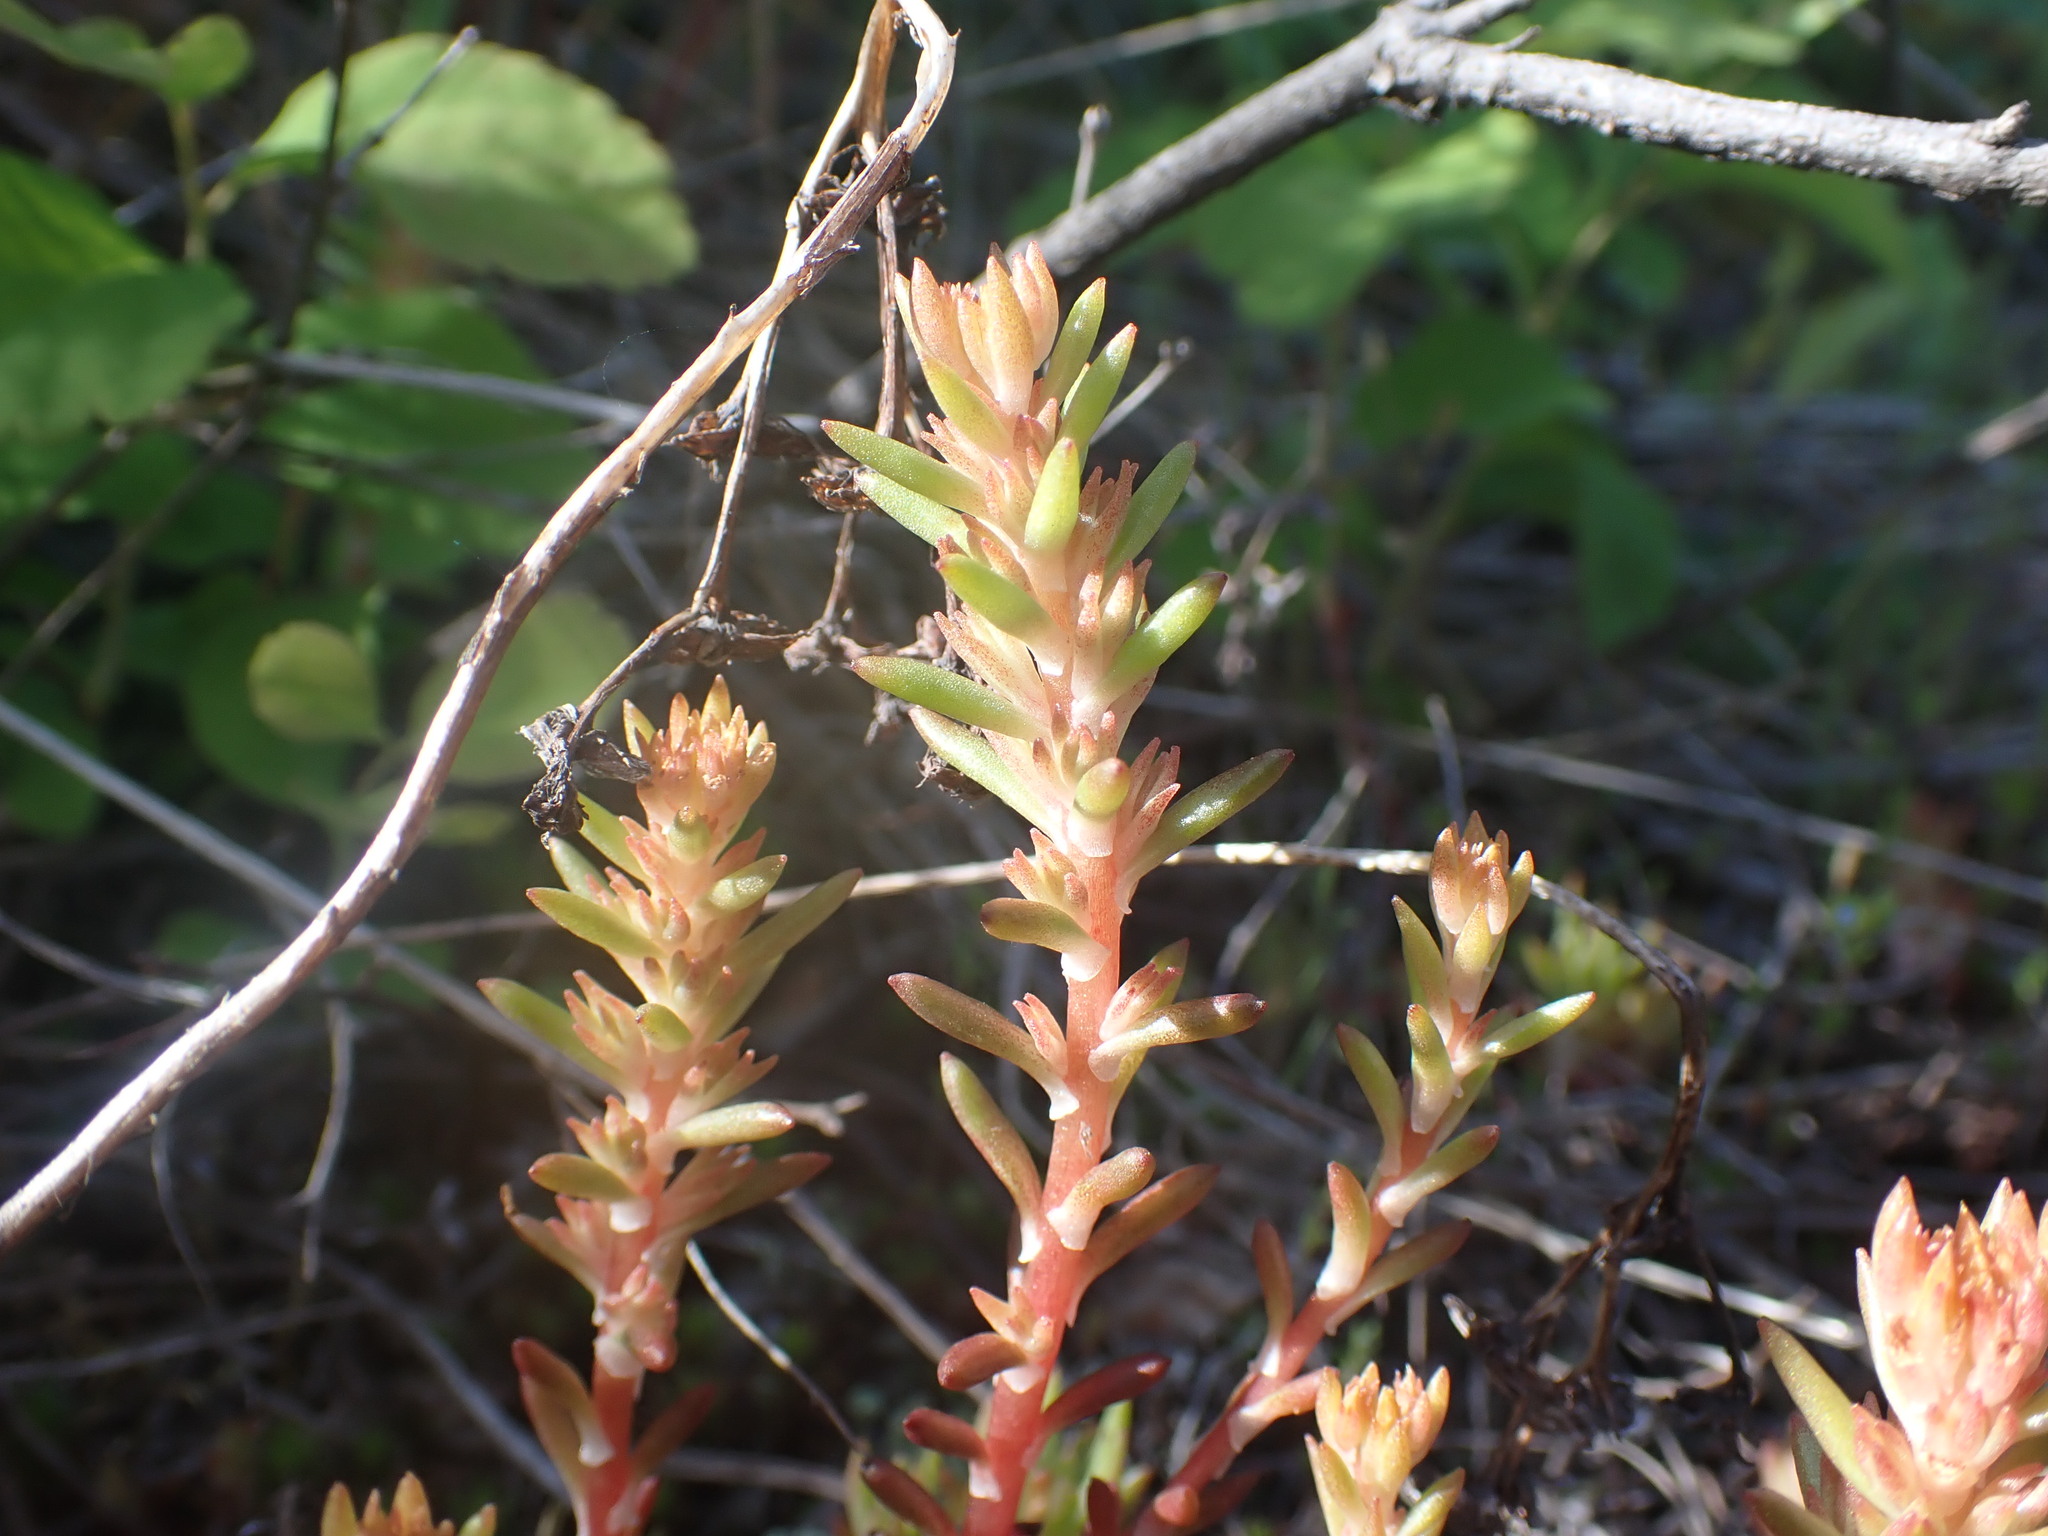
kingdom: Plantae
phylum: Tracheophyta
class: Magnoliopsida
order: Saxifragales
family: Crassulaceae
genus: Sedum
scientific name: Sedum stenopetalum
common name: Narrow-petaled stonecrop
